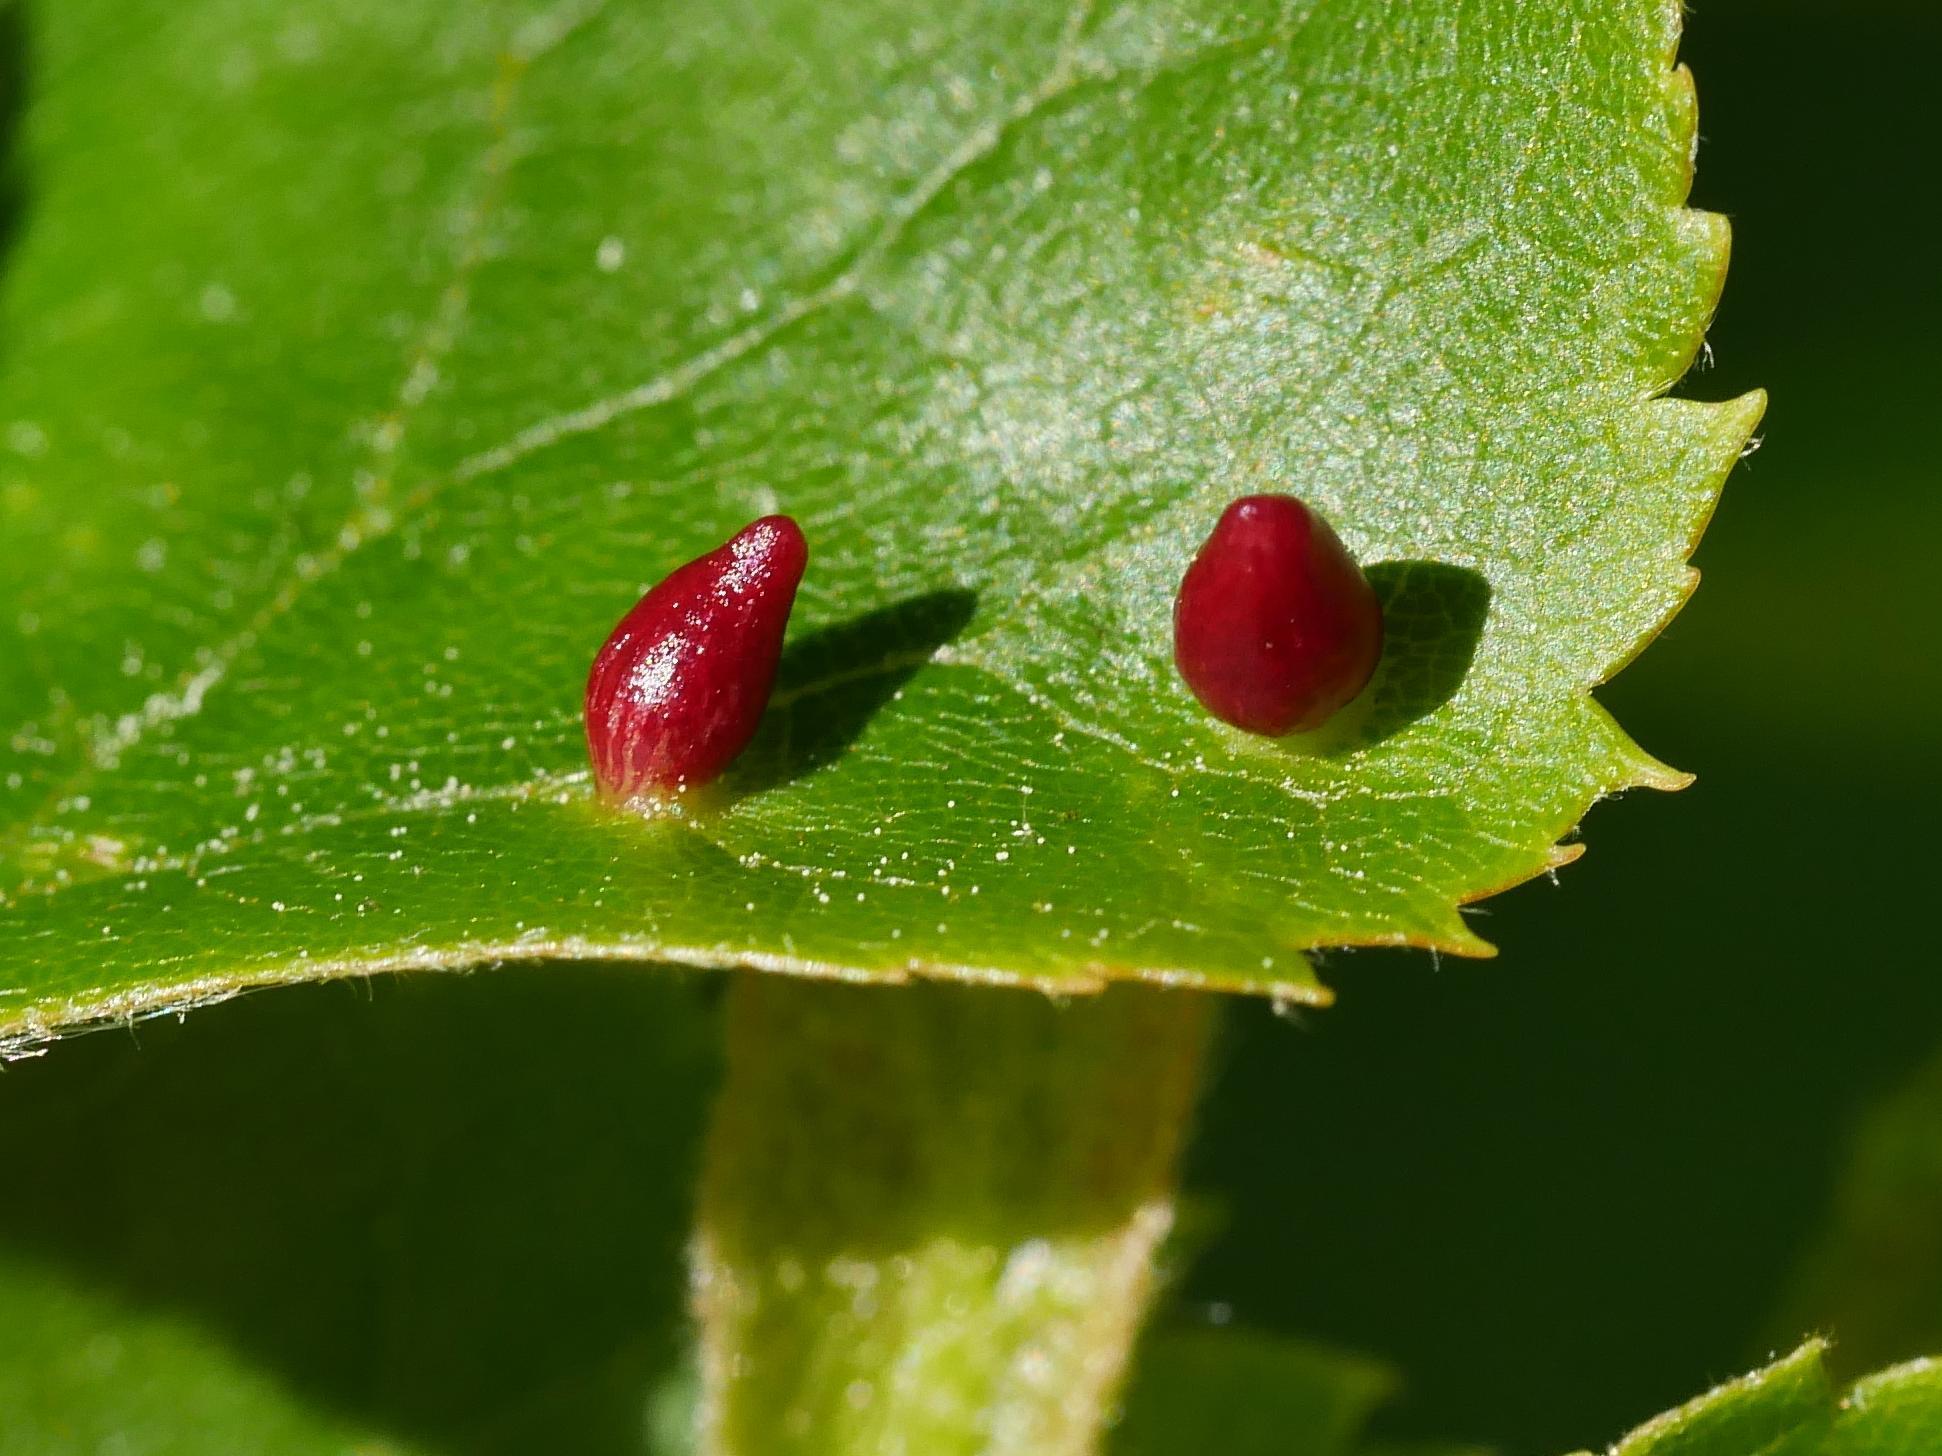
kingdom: Animalia
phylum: Arthropoda
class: Arachnida
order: Trombidiformes
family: Eriophyidae
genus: Eriophyes
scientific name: Eriophyes tiliae
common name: Red nail gall mite
